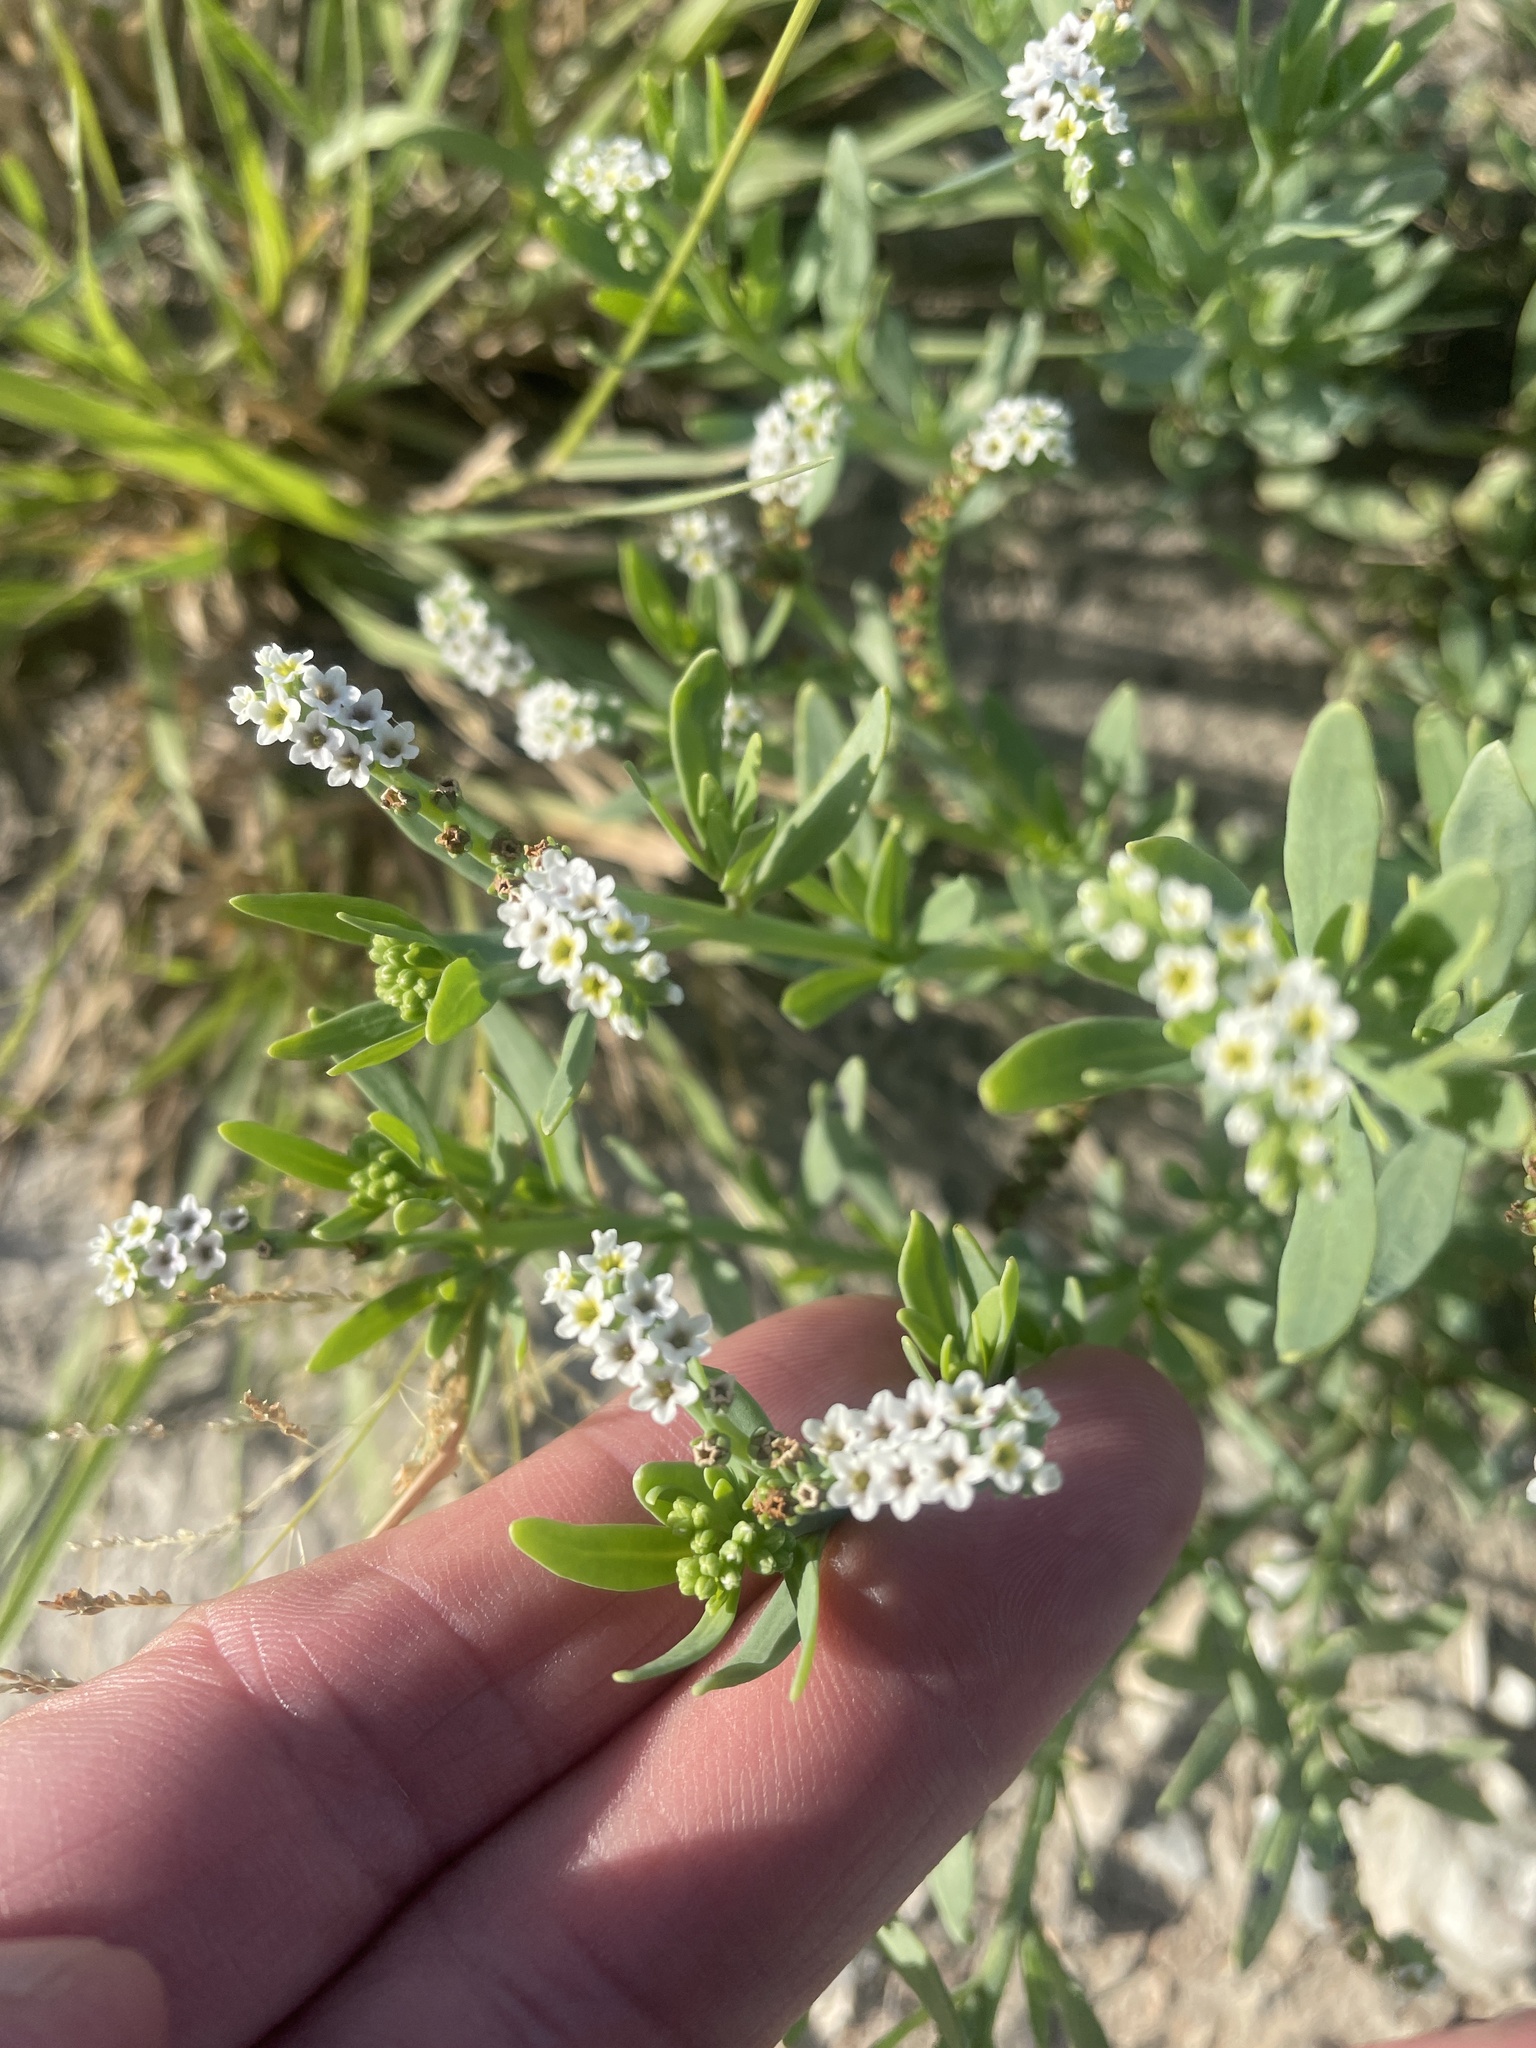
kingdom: Plantae
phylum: Tracheophyta
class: Magnoliopsida
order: Boraginales
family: Heliotropiaceae
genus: Heliotropium
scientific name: Heliotropium curassavicum
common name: Seaside heliotrope
